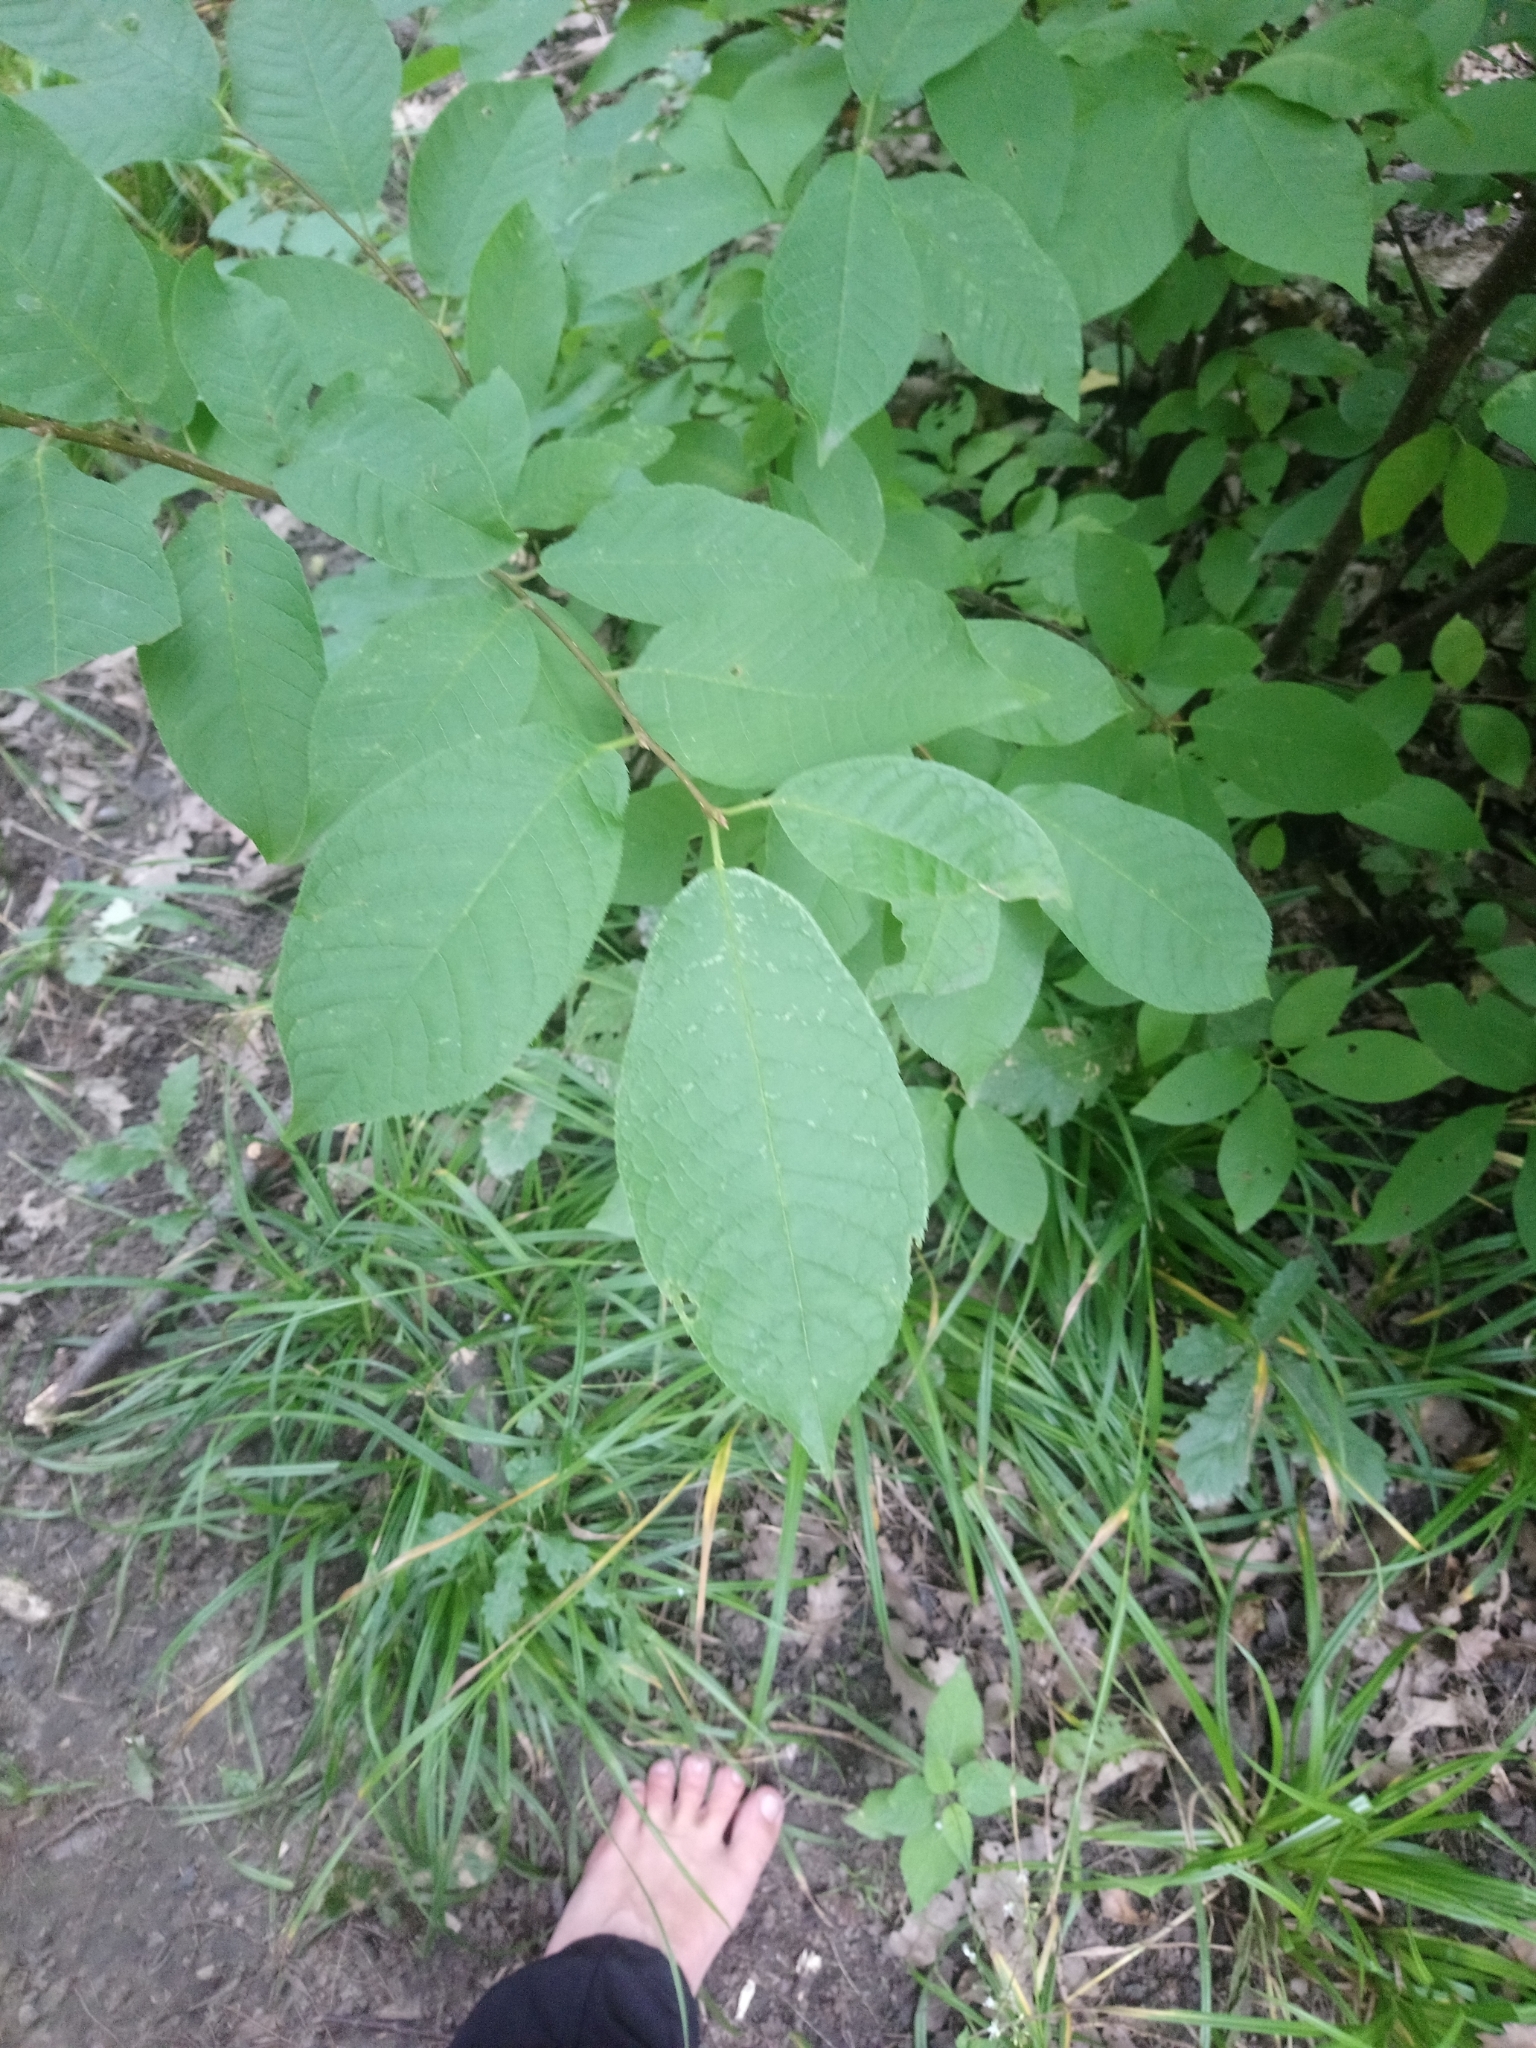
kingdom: Plantae
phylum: Tracheophyta
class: Magnoliopsida
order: Rosales
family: Rosaceae
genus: Prunus
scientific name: Prunus padus
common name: Bird cherry
